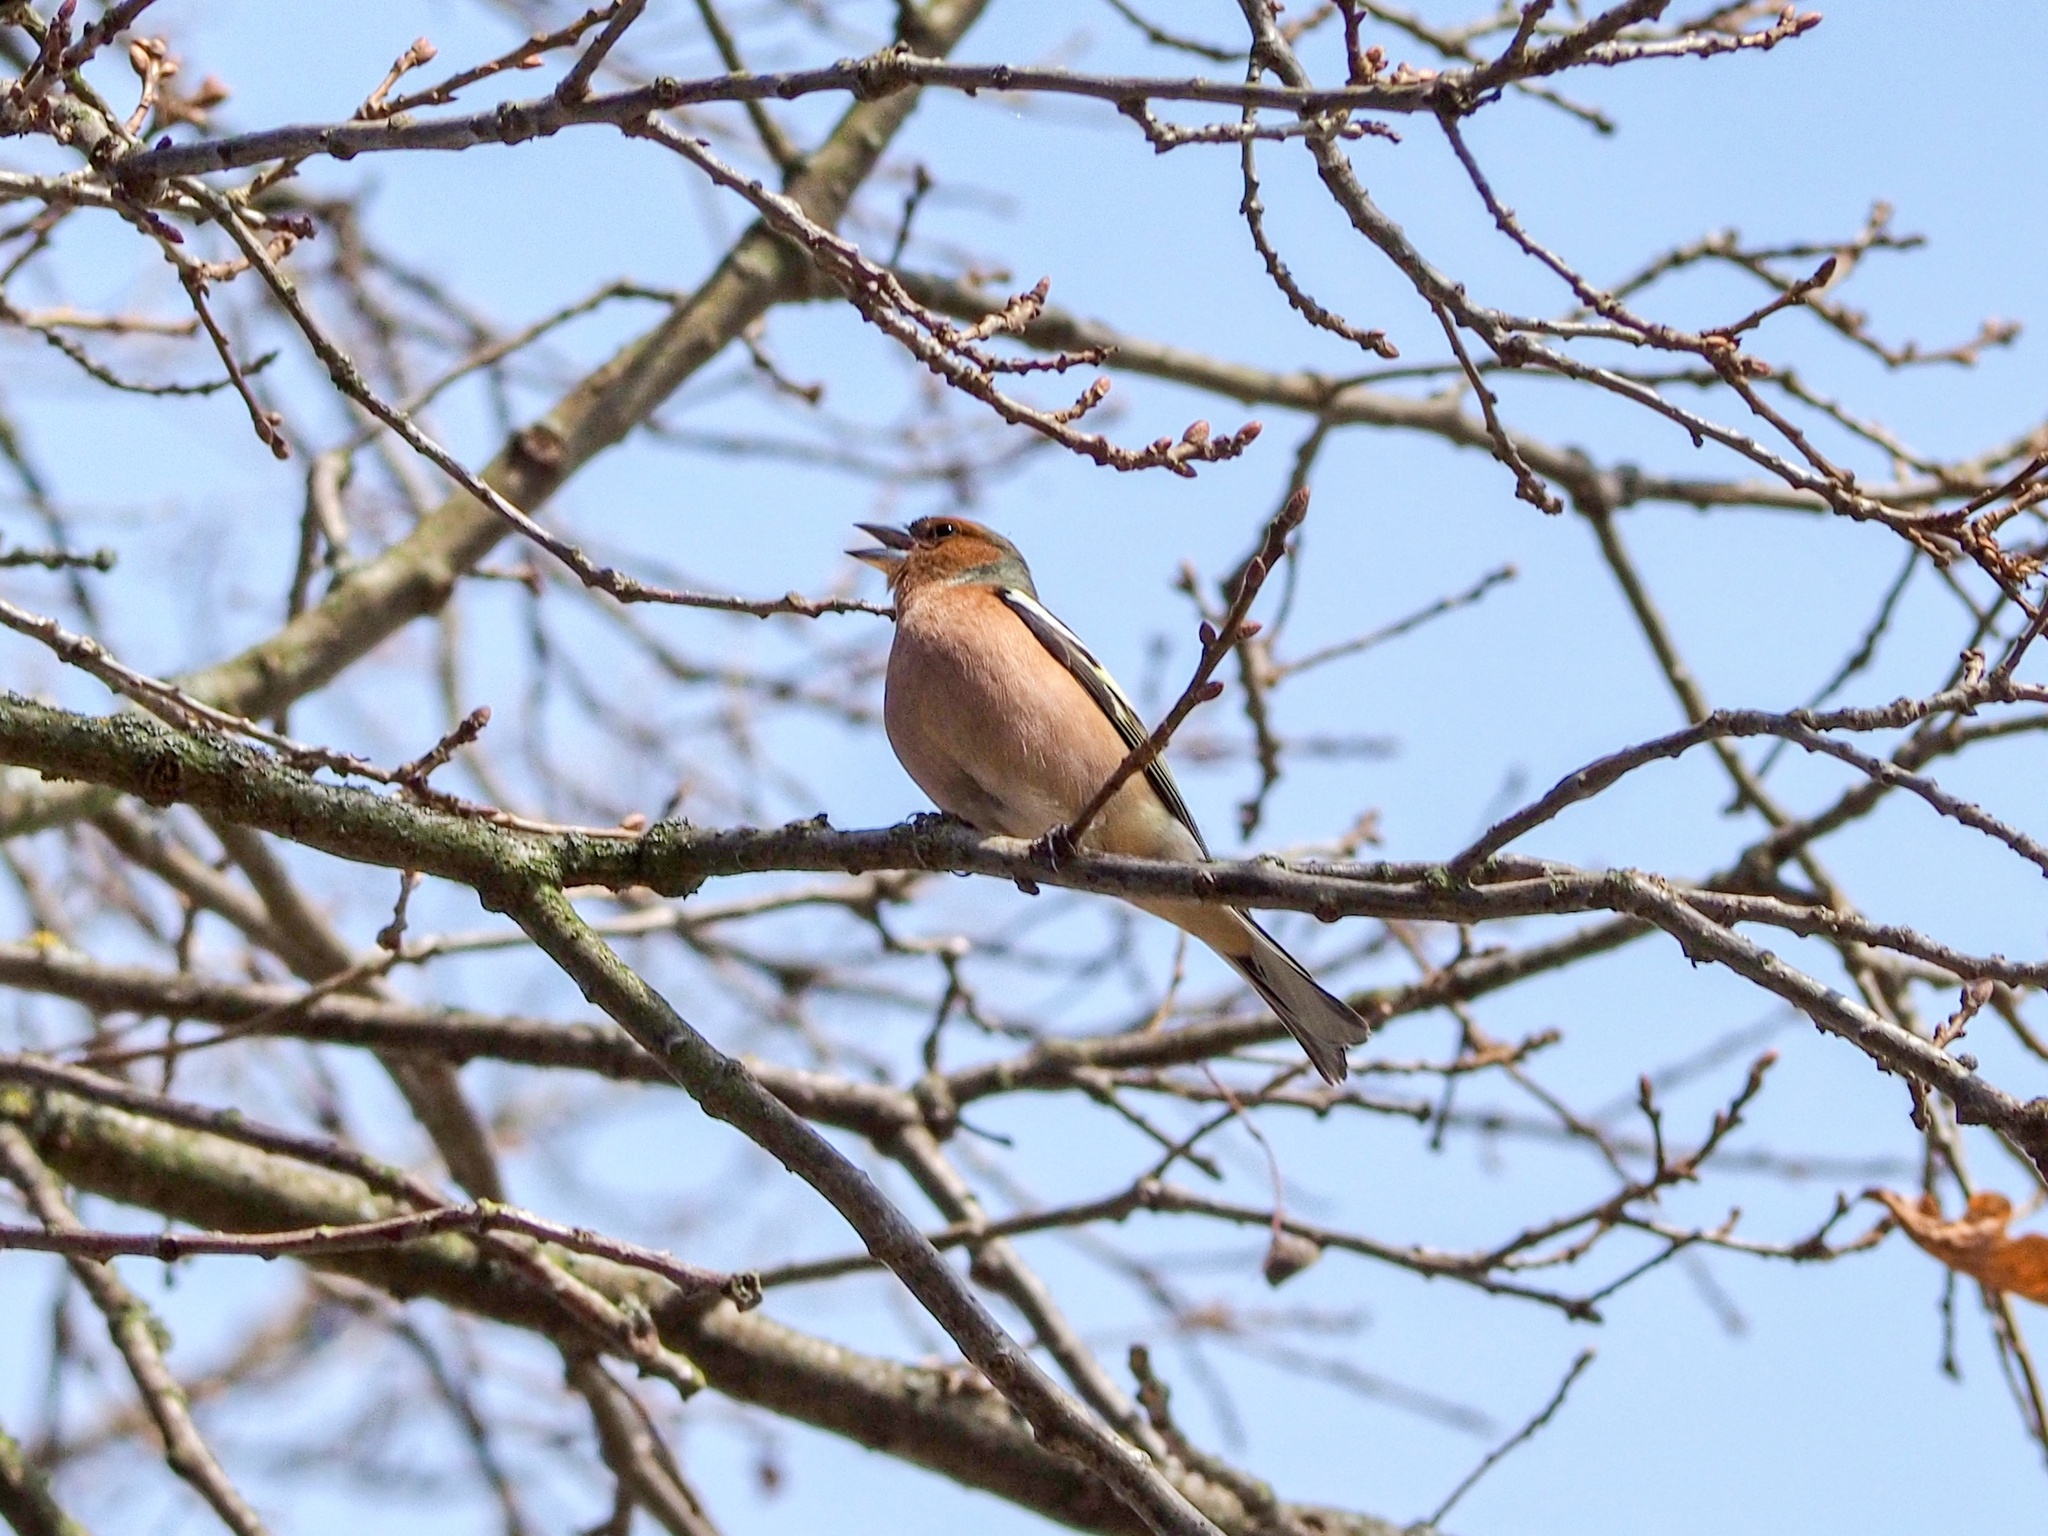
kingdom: Animalia
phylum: Chordata
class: Aves
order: Passeriformes
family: Fringillidae
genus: Fringilla
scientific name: Fringilla coelebs
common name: Common chaffinch
